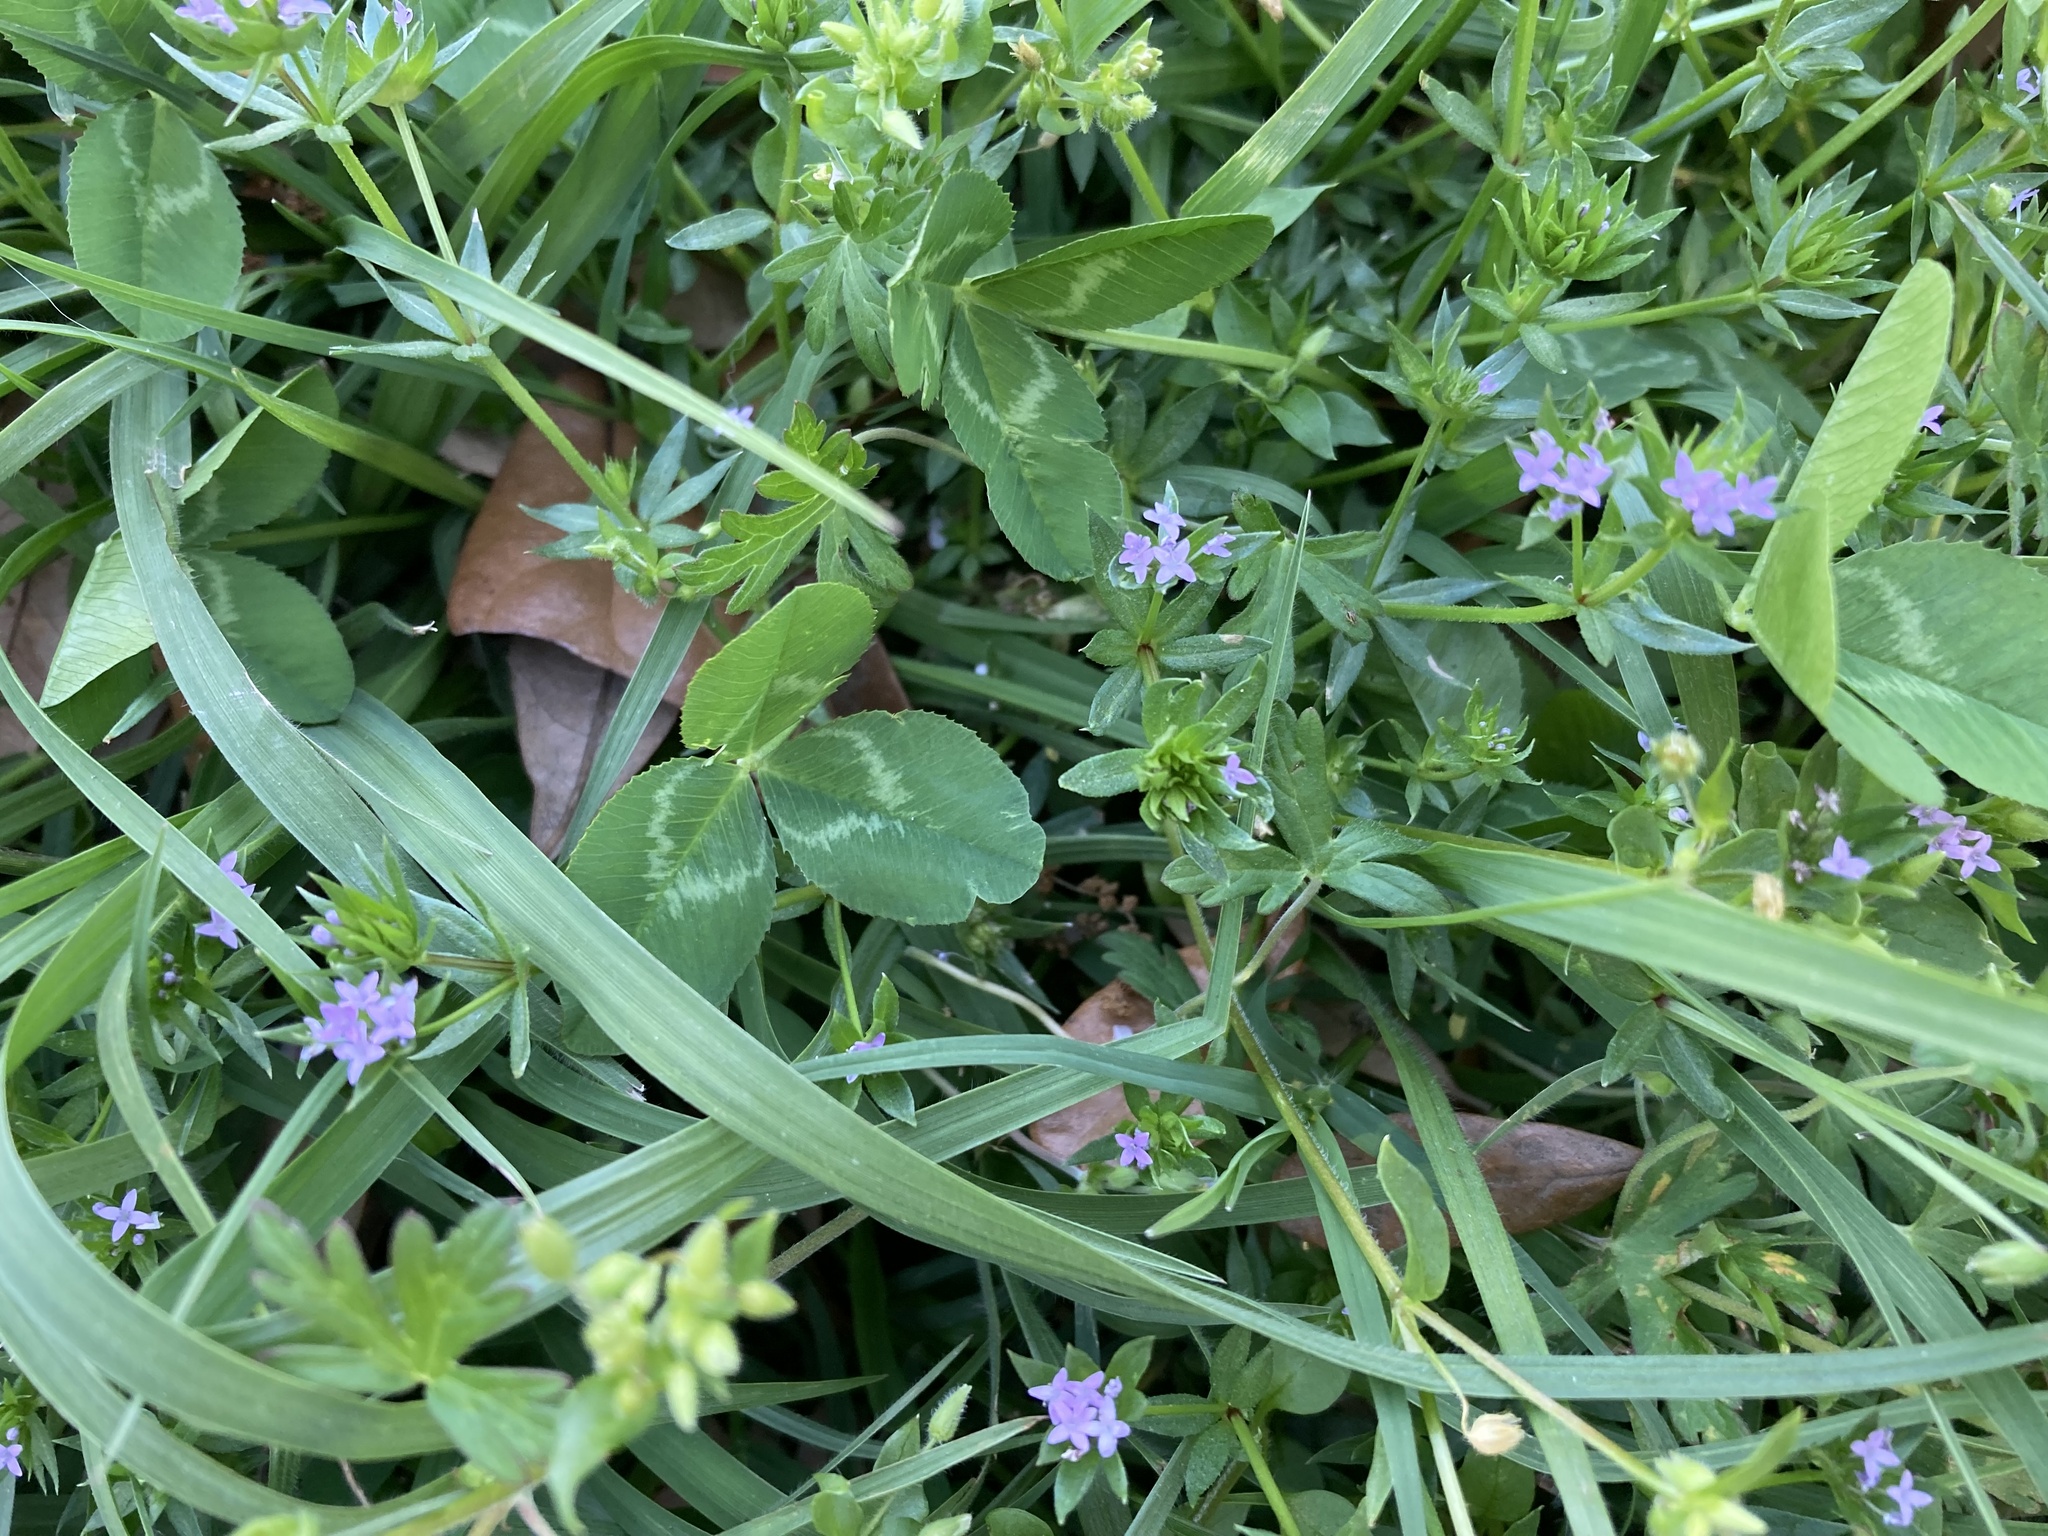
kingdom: Plantae
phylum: Tracheophyta
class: Magnoliopsida
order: Gentianales
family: Rubiaceae
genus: Sherardia
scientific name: Sherardia arvensis
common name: Field madder
